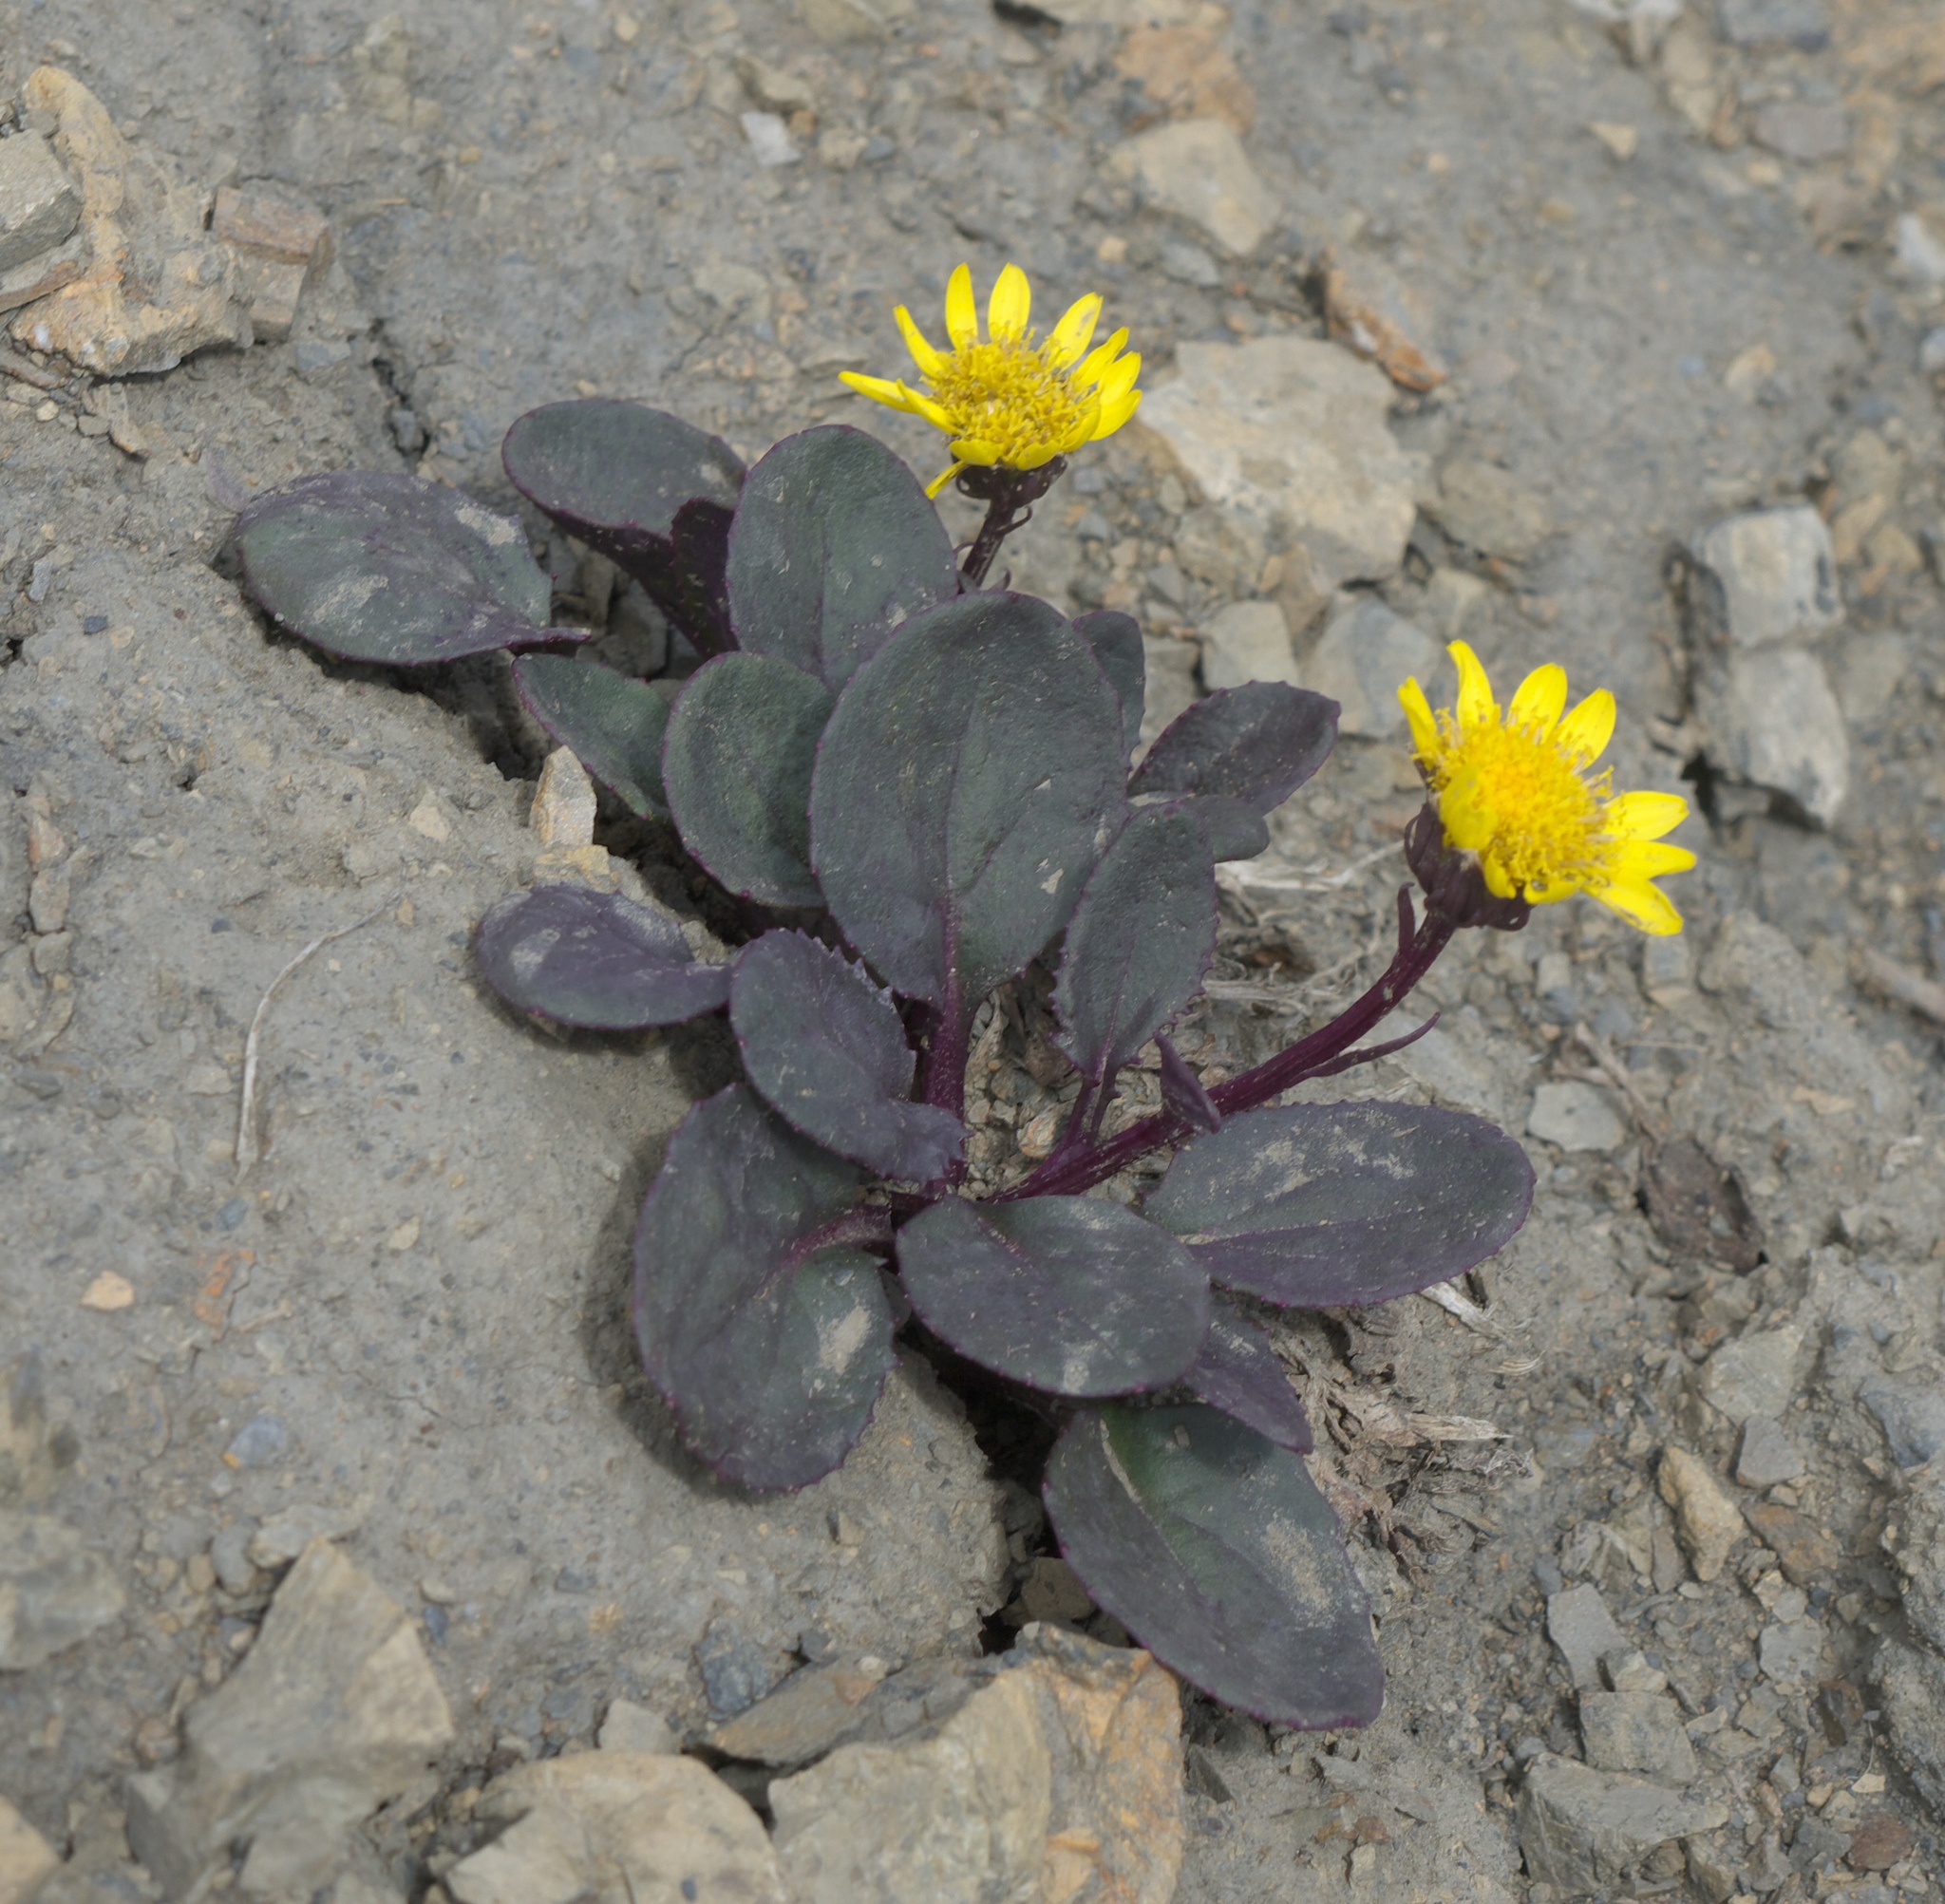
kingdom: Plantae
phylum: Tracheophyta
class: Magnoliopsida
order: Asterales
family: Asteraceae
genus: Senecio
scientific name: Senecio soldanella
